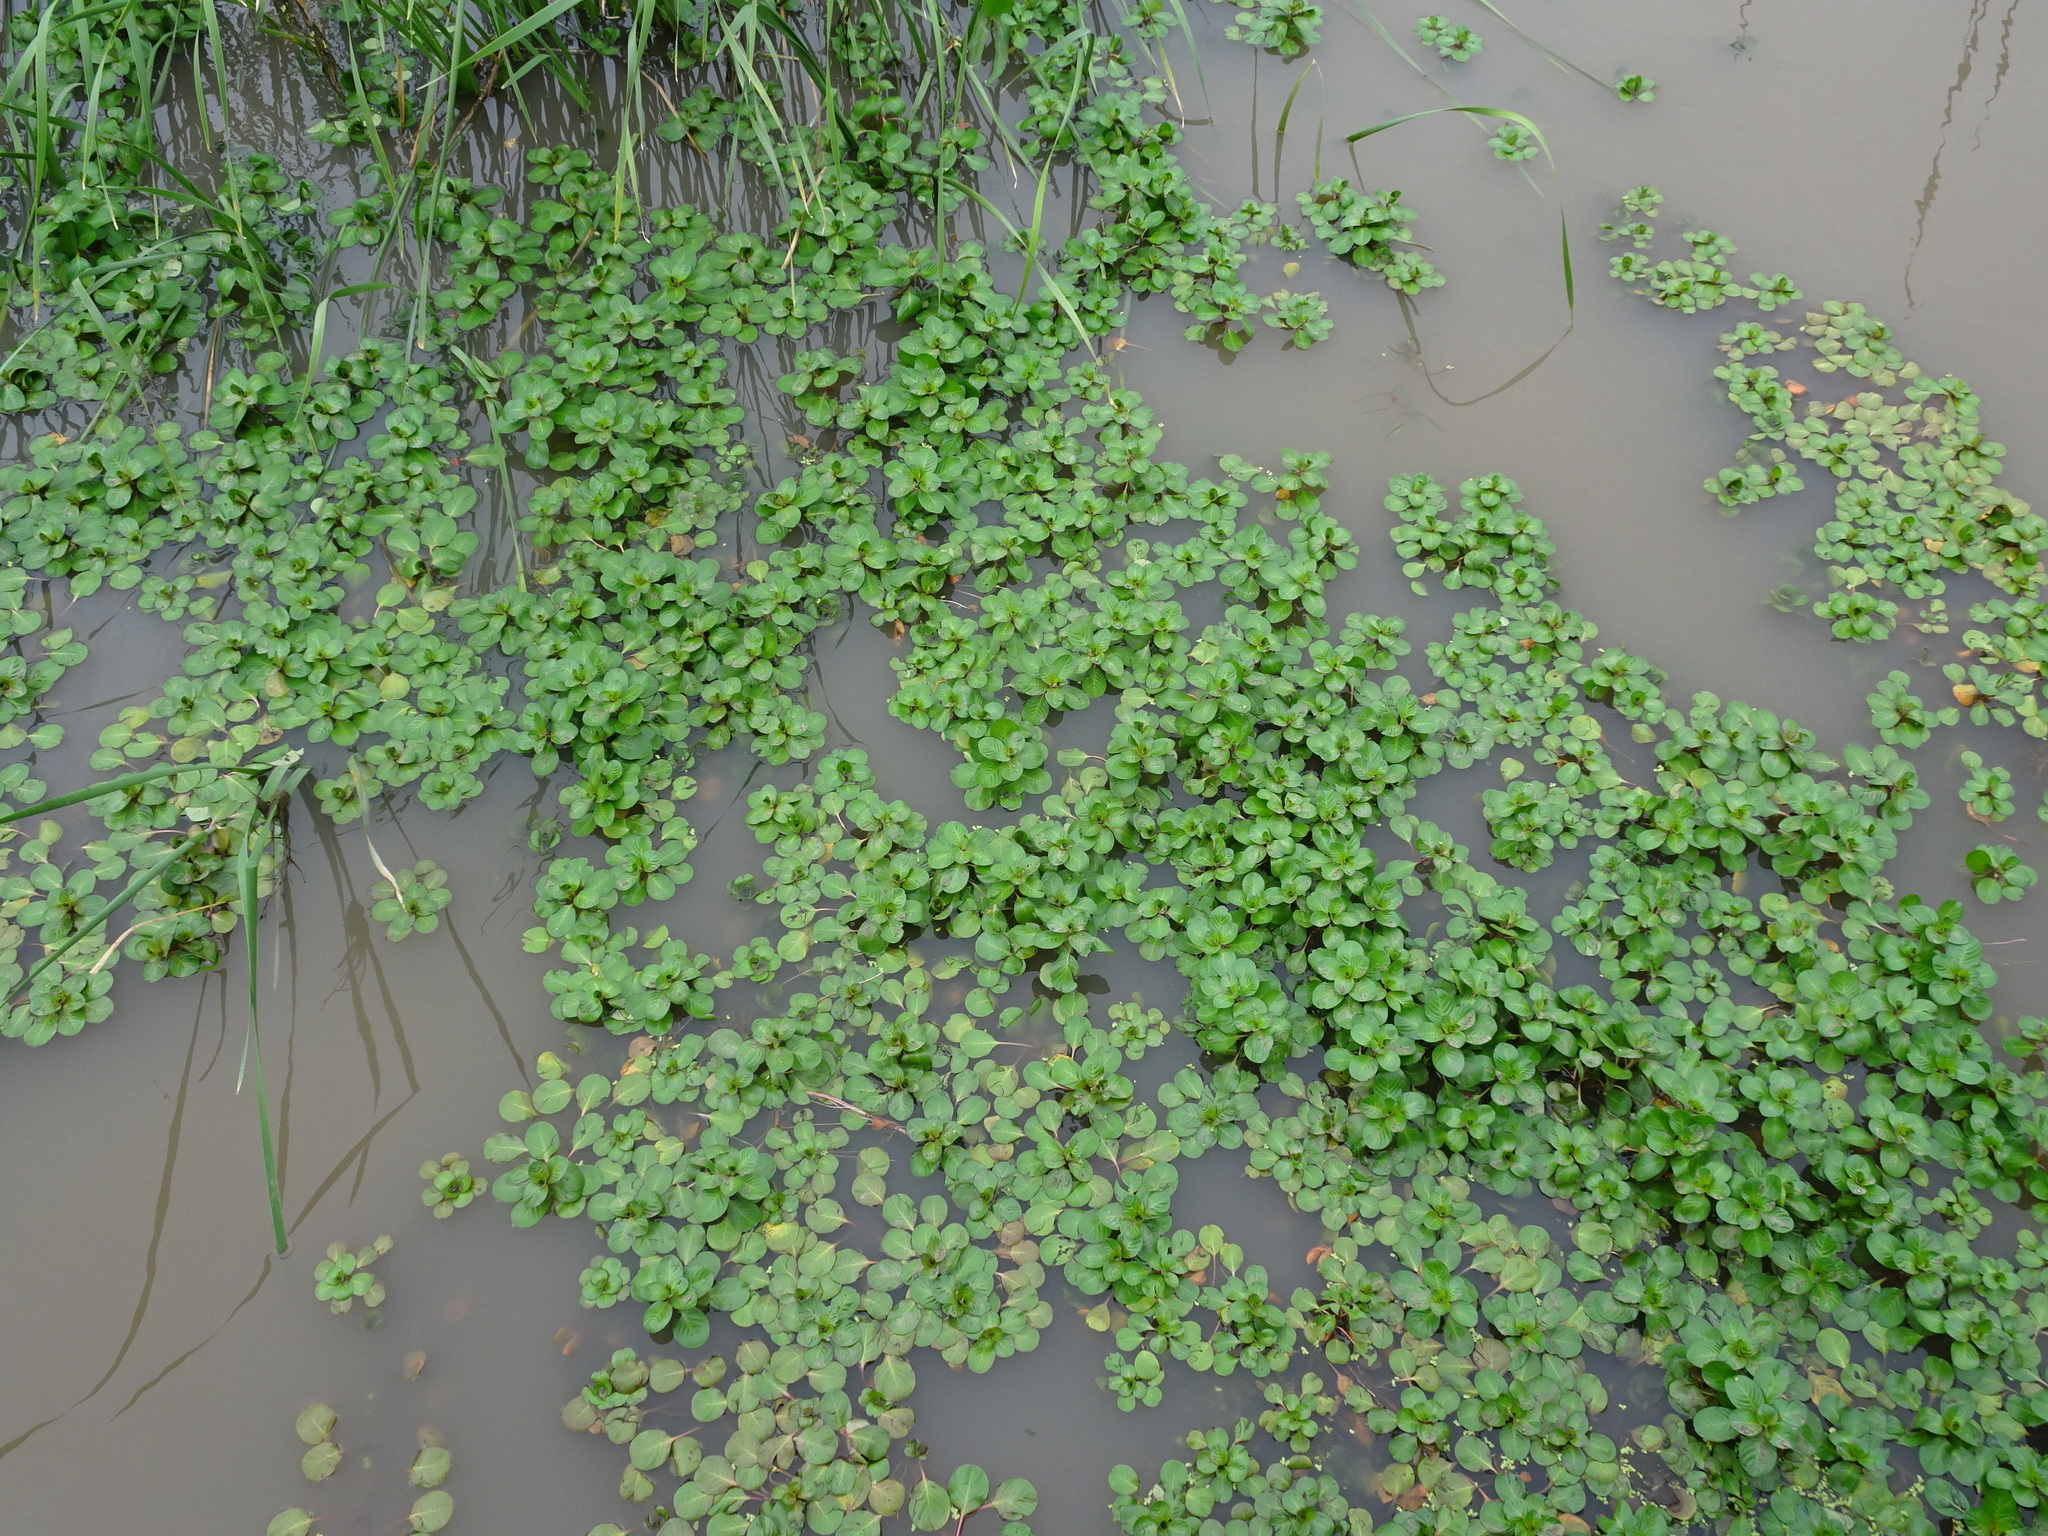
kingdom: Plantae
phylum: Tracheophyta
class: Magnoliopsida
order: Myrtales
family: Onagraceae
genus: Ludwigia
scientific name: Ludwigia peploides
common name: Floating primrose-willow
